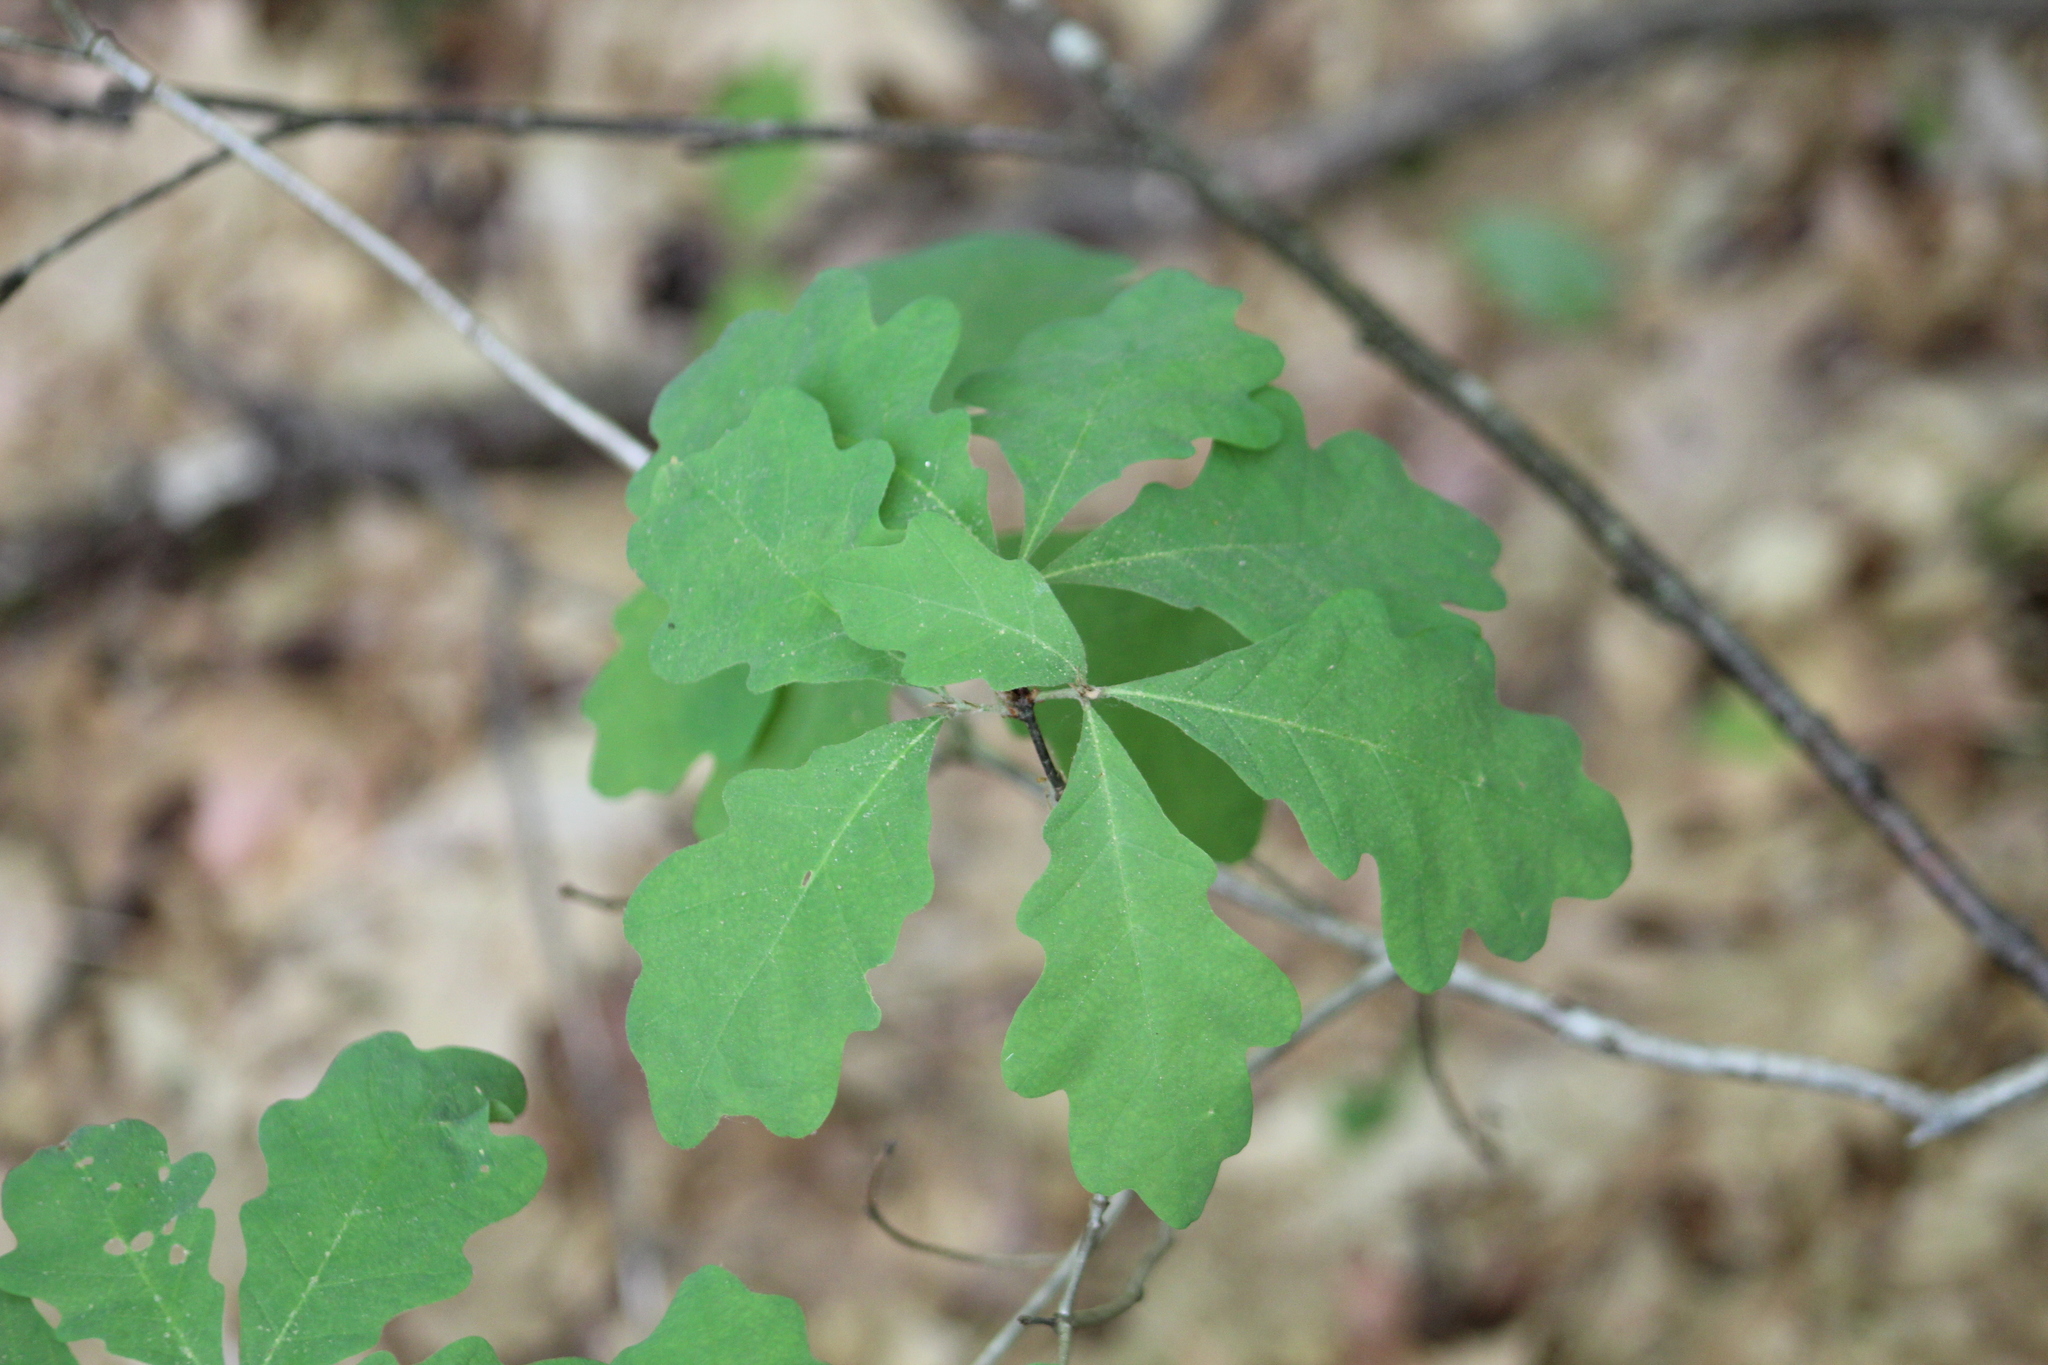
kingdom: Plantae
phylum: Tracheophyta
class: Magnoliopsida
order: Fagales
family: Fagaceae
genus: Quercus
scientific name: Quercus alba
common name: White oak
